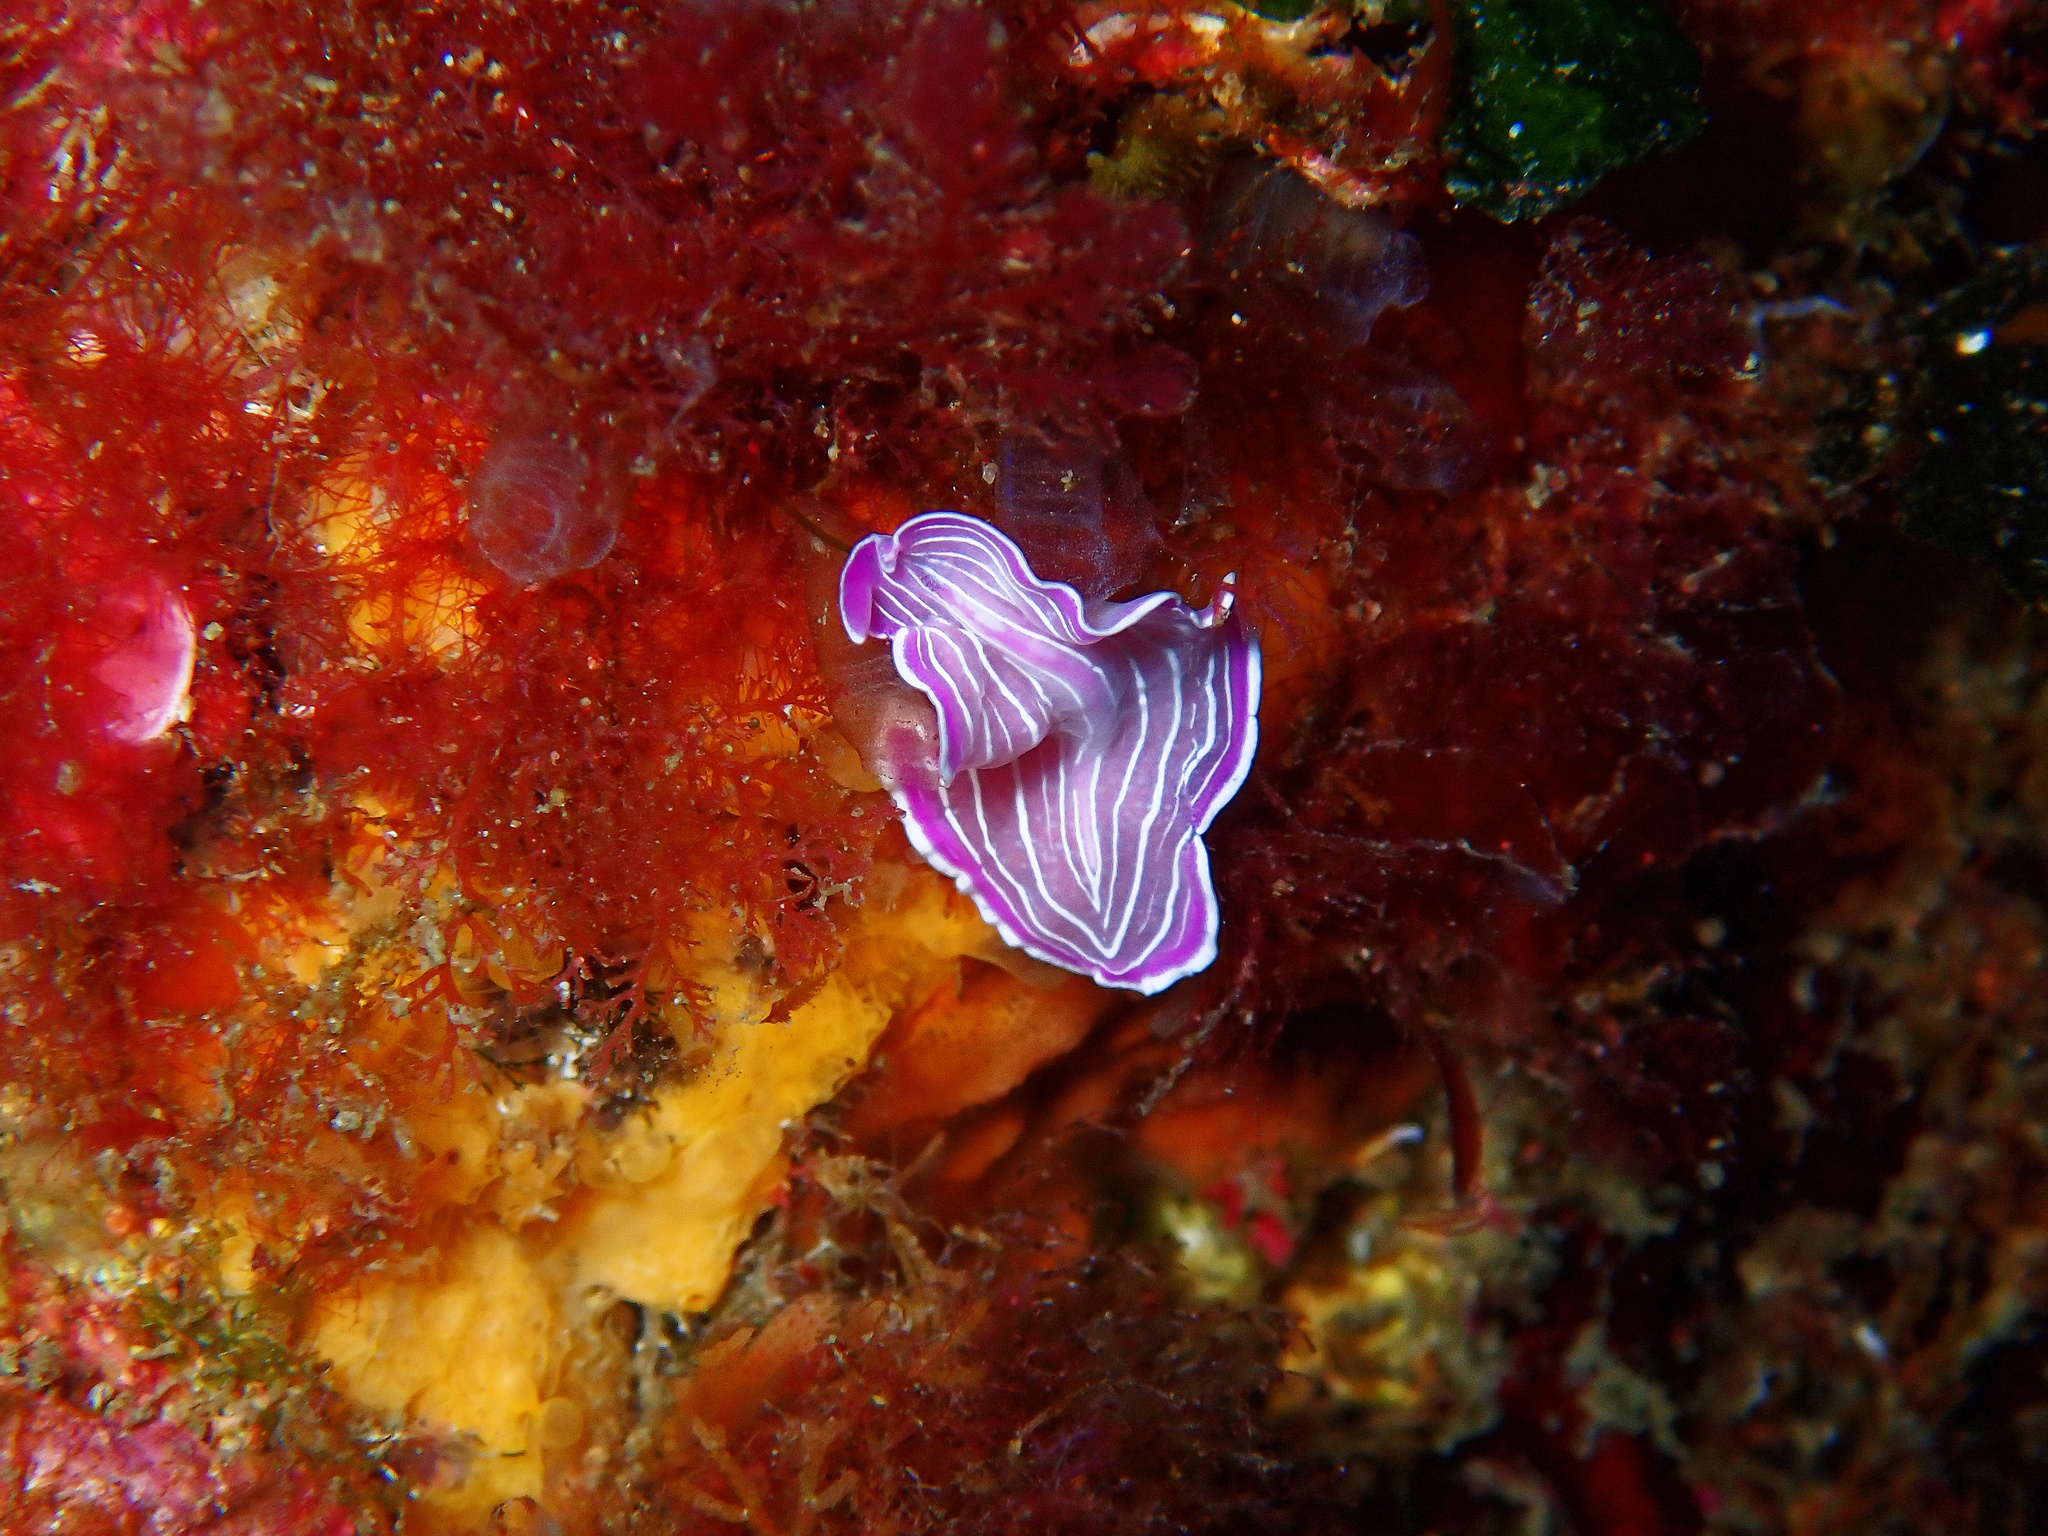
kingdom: Animalia
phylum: Platyhelminthes
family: Euryleptidae
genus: Prostheceraeus
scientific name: Prostheceraeus roseus
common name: Pink flatworm
